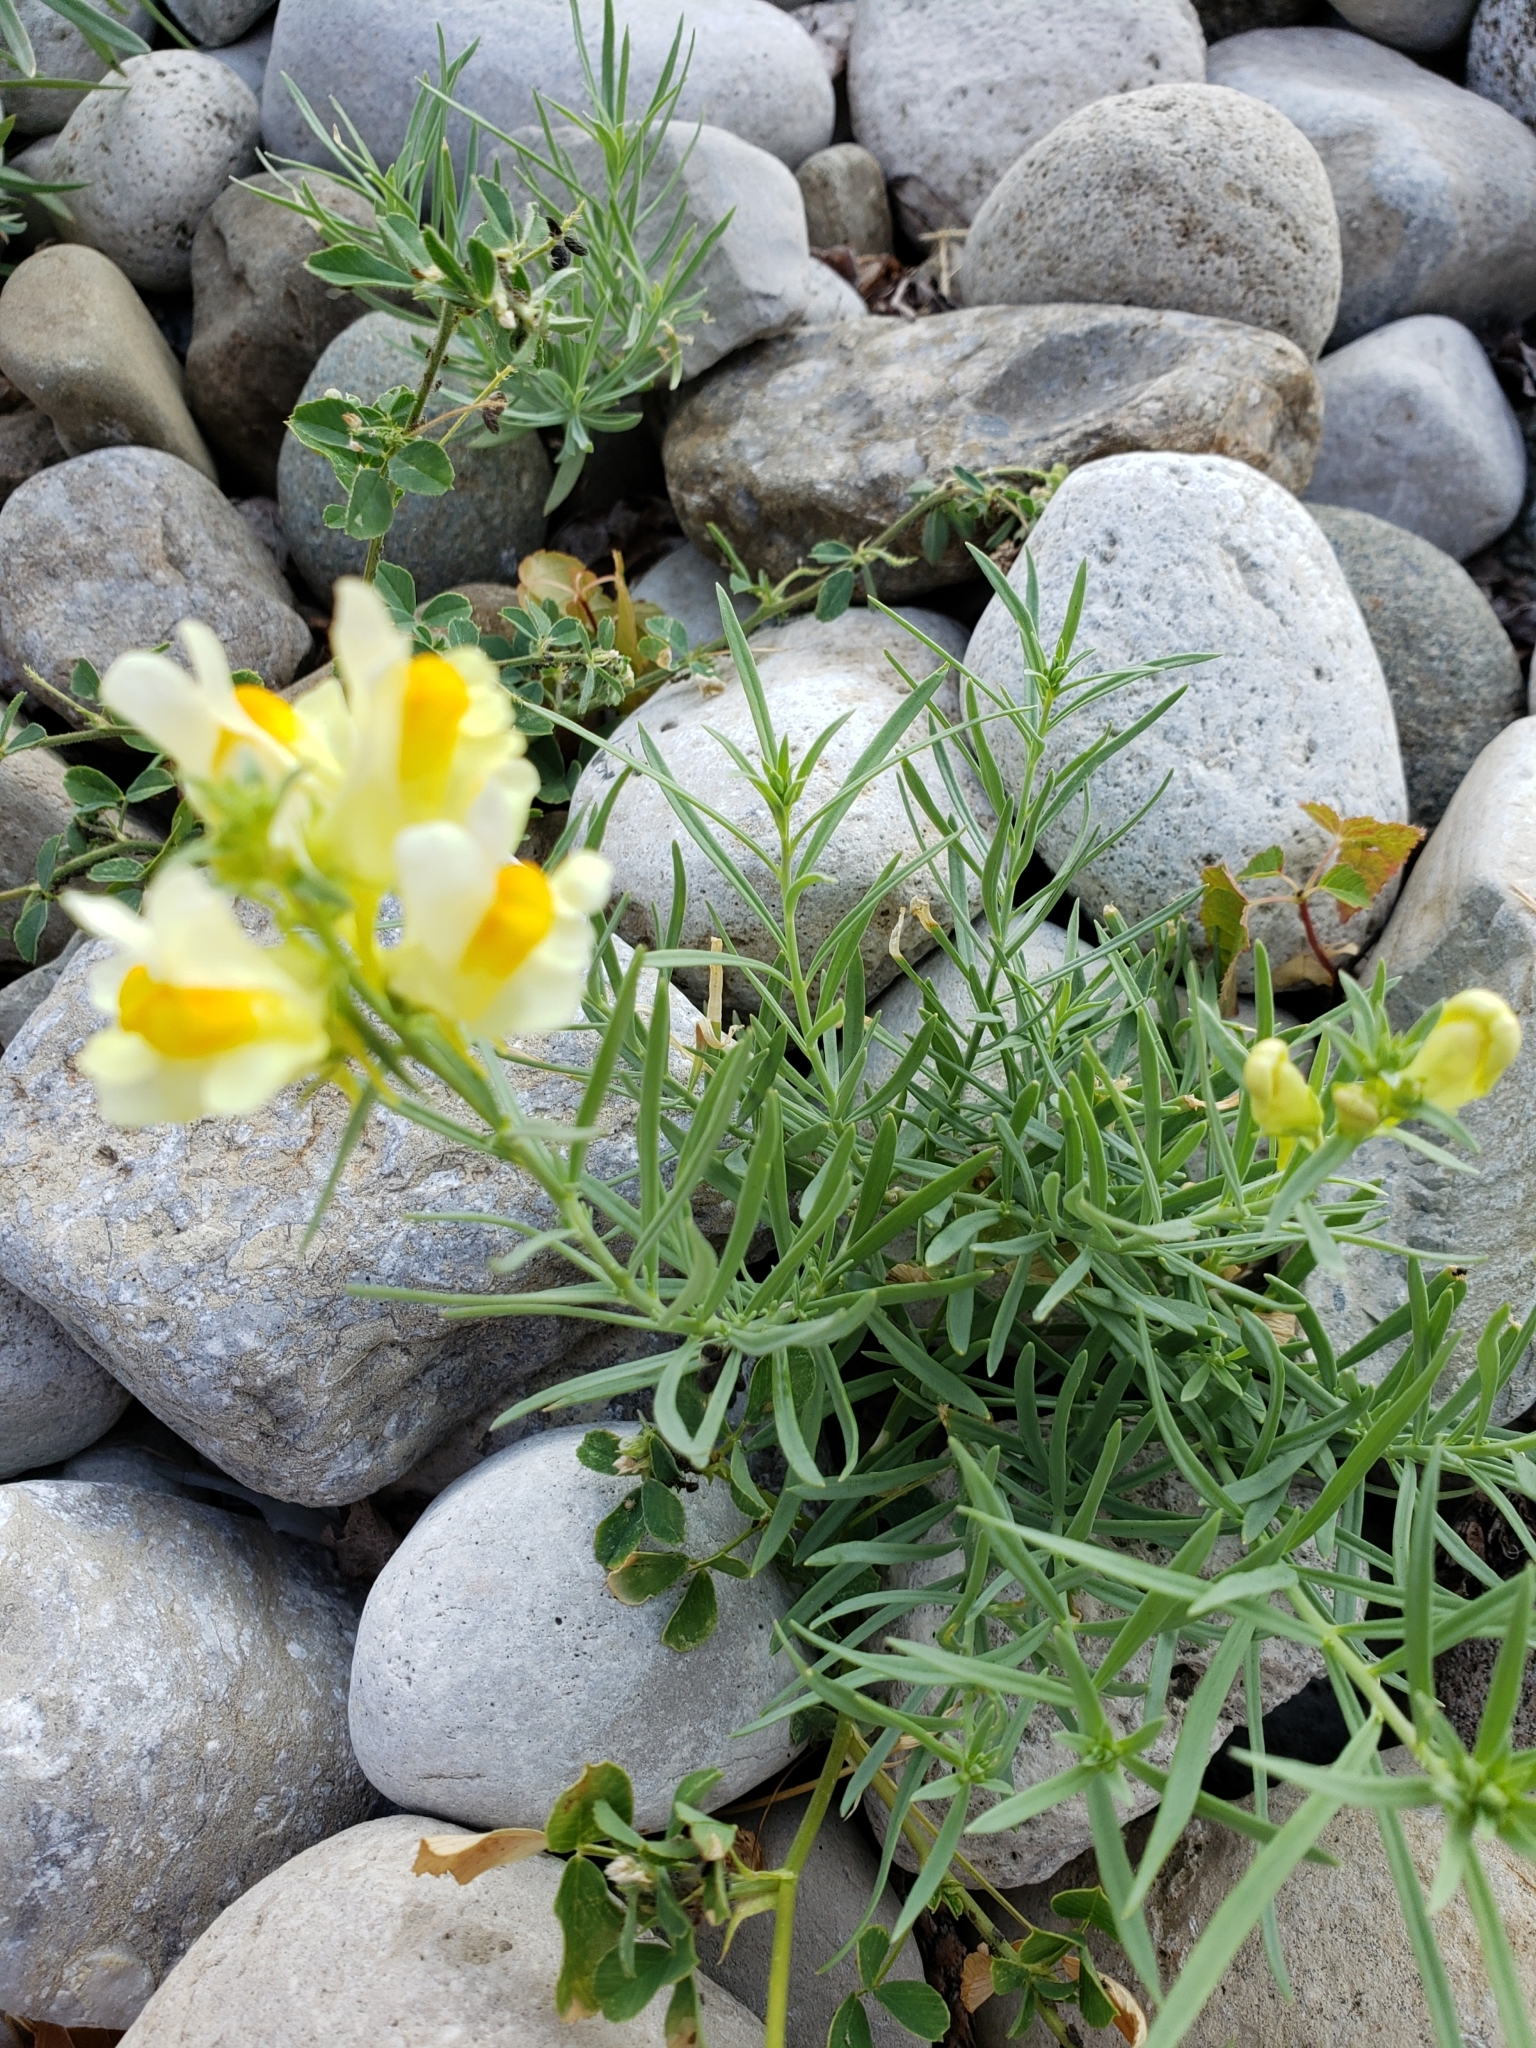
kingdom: Plantae
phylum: Tracheophyta
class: Magnoliopsida
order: Lamiales
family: Plantaginaceae
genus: Linaria
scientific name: Linaria vulgaris
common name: Butter and eggs
